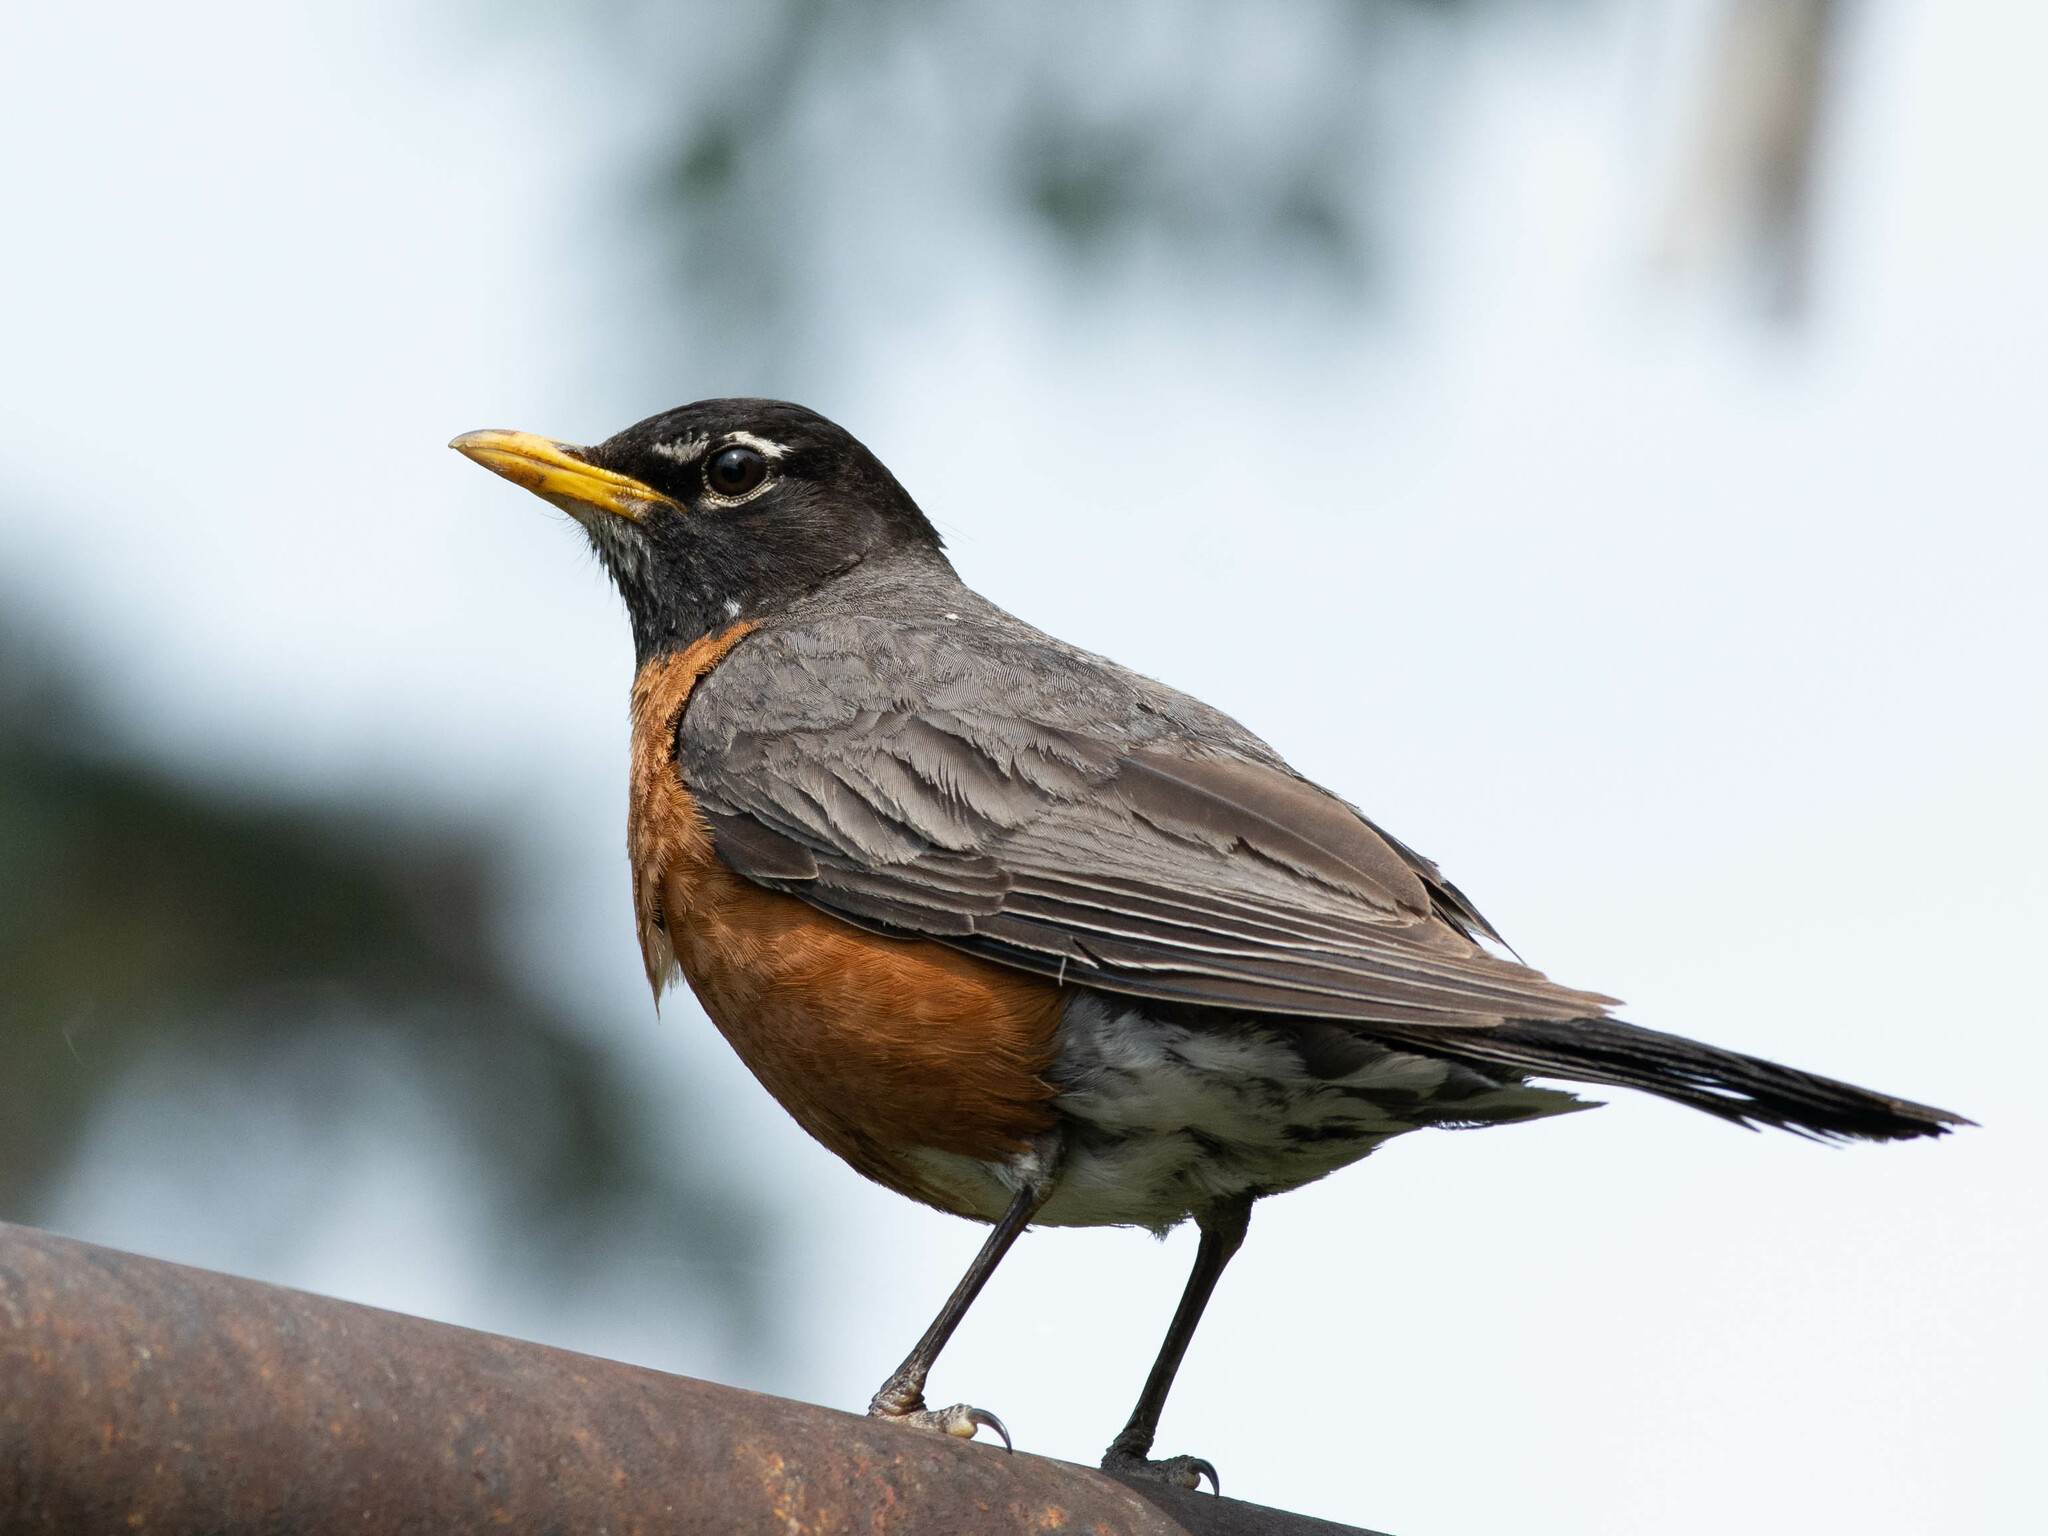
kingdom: Animalia
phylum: Chordata
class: Aves
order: Passeriformes
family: Turdidae
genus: Turdus
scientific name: Turdus migratorius
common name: American robin
